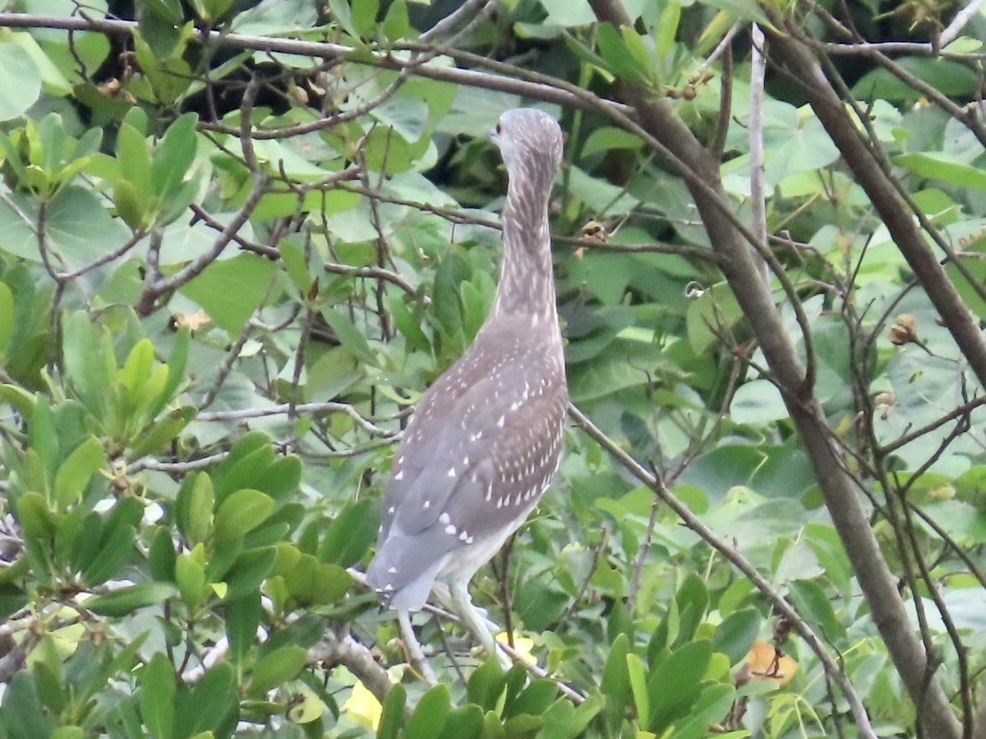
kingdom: Animalia
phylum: Chordata
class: Aves
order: Pelecaniformes
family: Ardeidae
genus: Nycticorax
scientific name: Nycticorax nycticorax
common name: Black-crowned night heron
